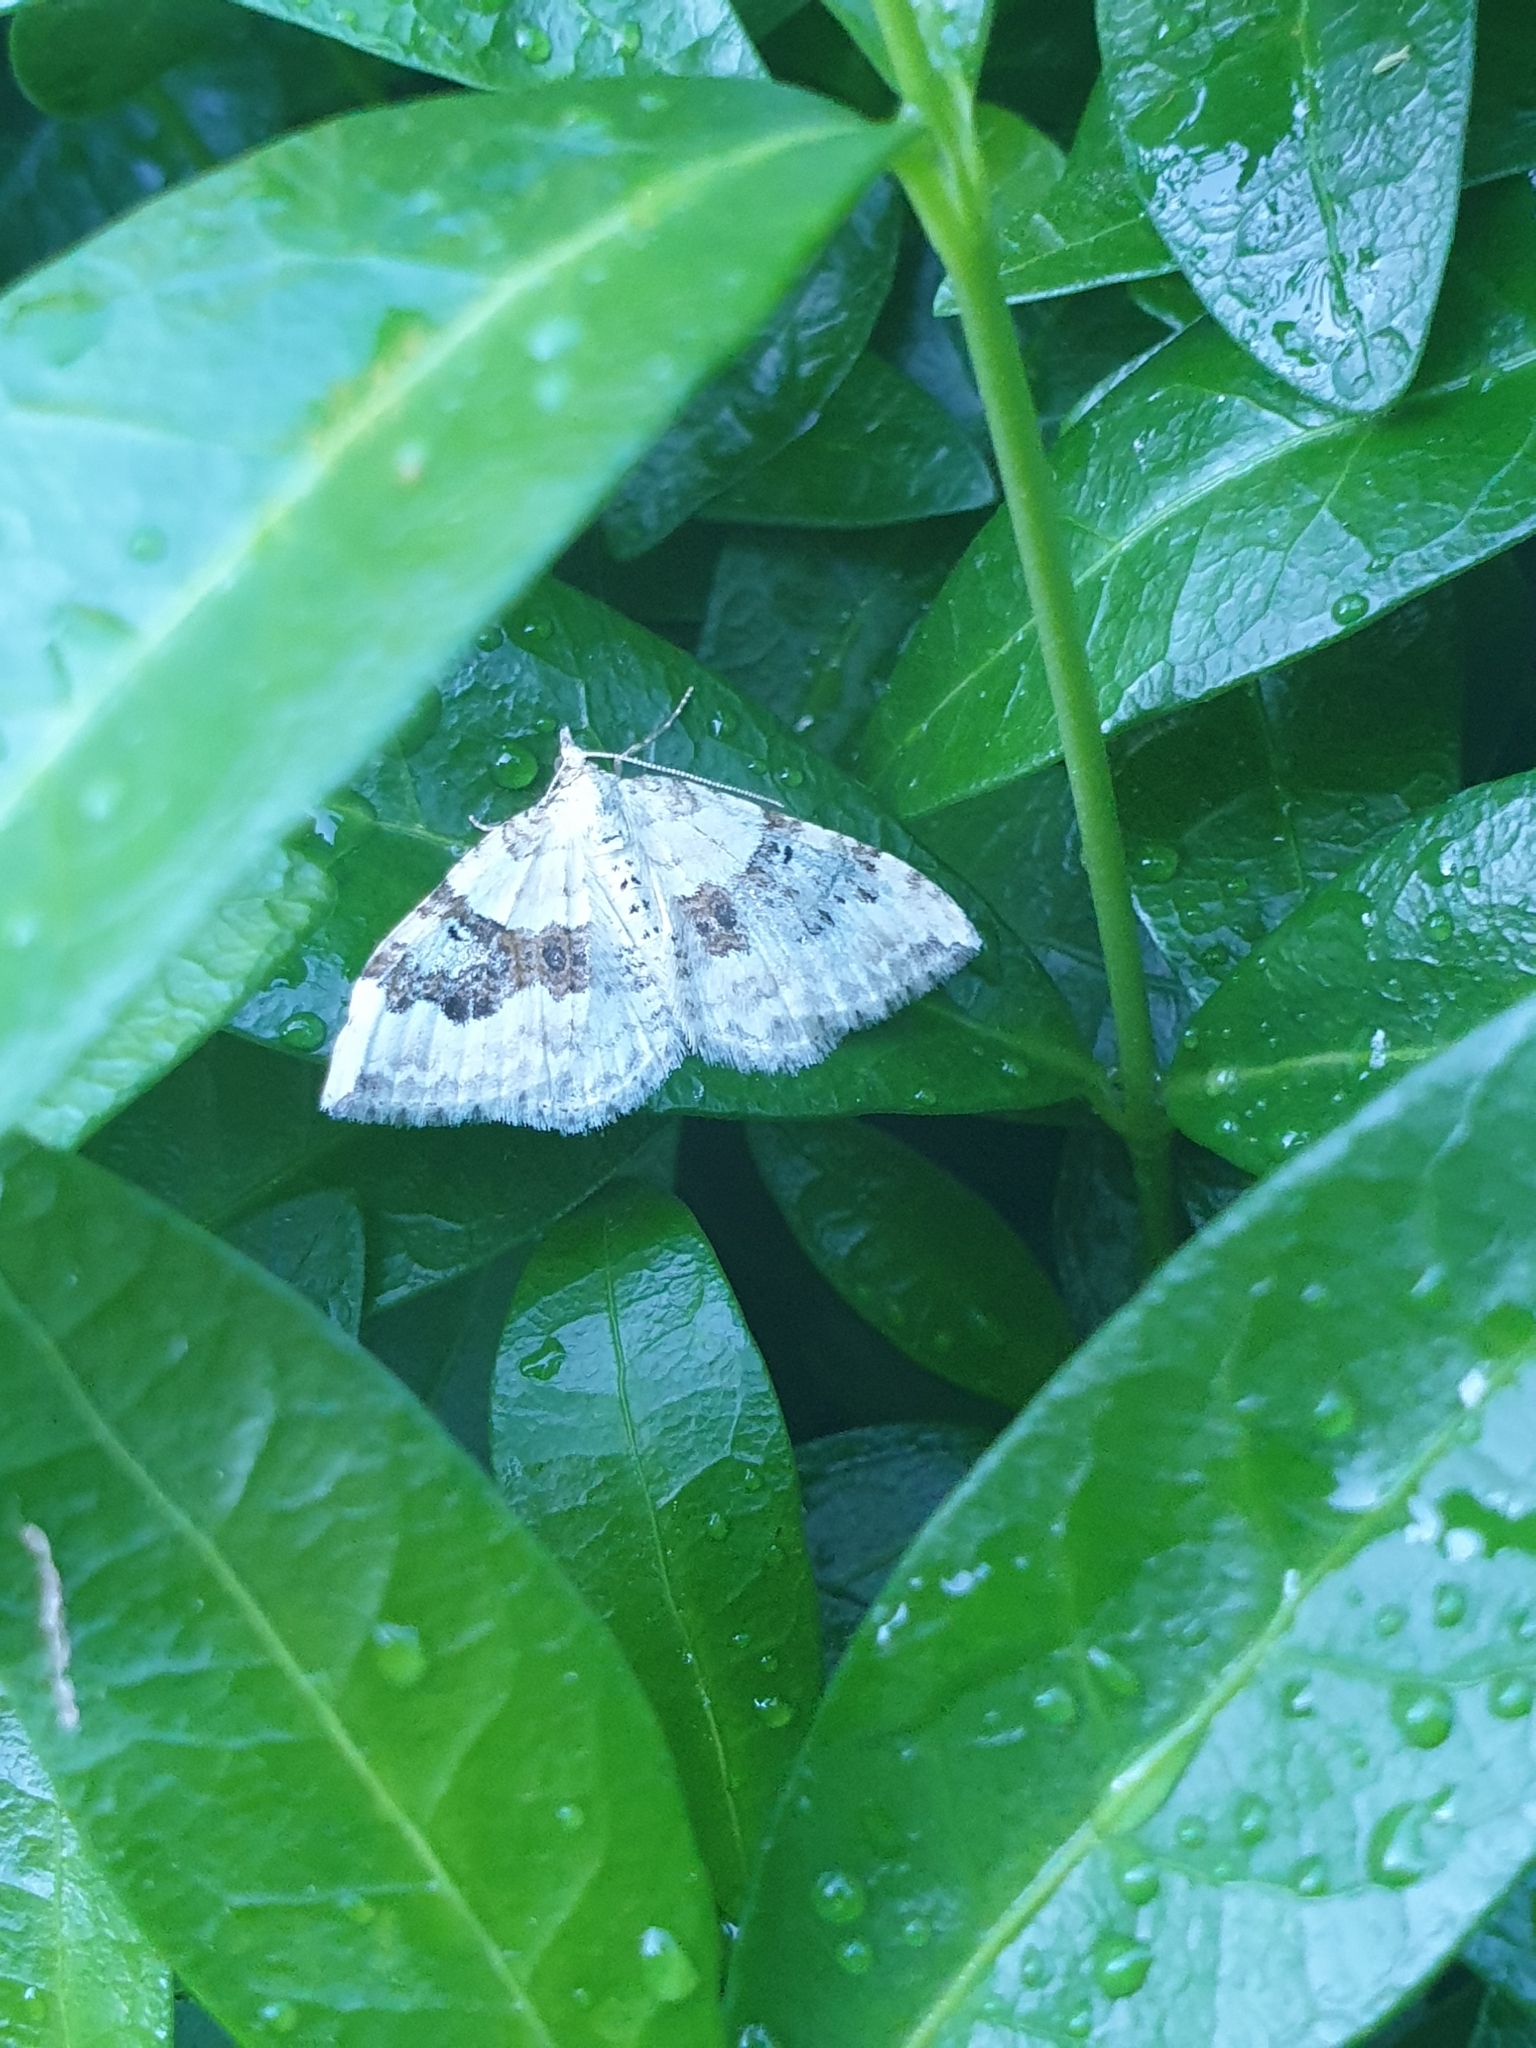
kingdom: Animalia
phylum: Arthropoda
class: Insecta
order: Lepidoptera
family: Geometridae
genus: Xanthorhoe
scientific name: Xanthorhoe montanata
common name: Silver-ground carpet
